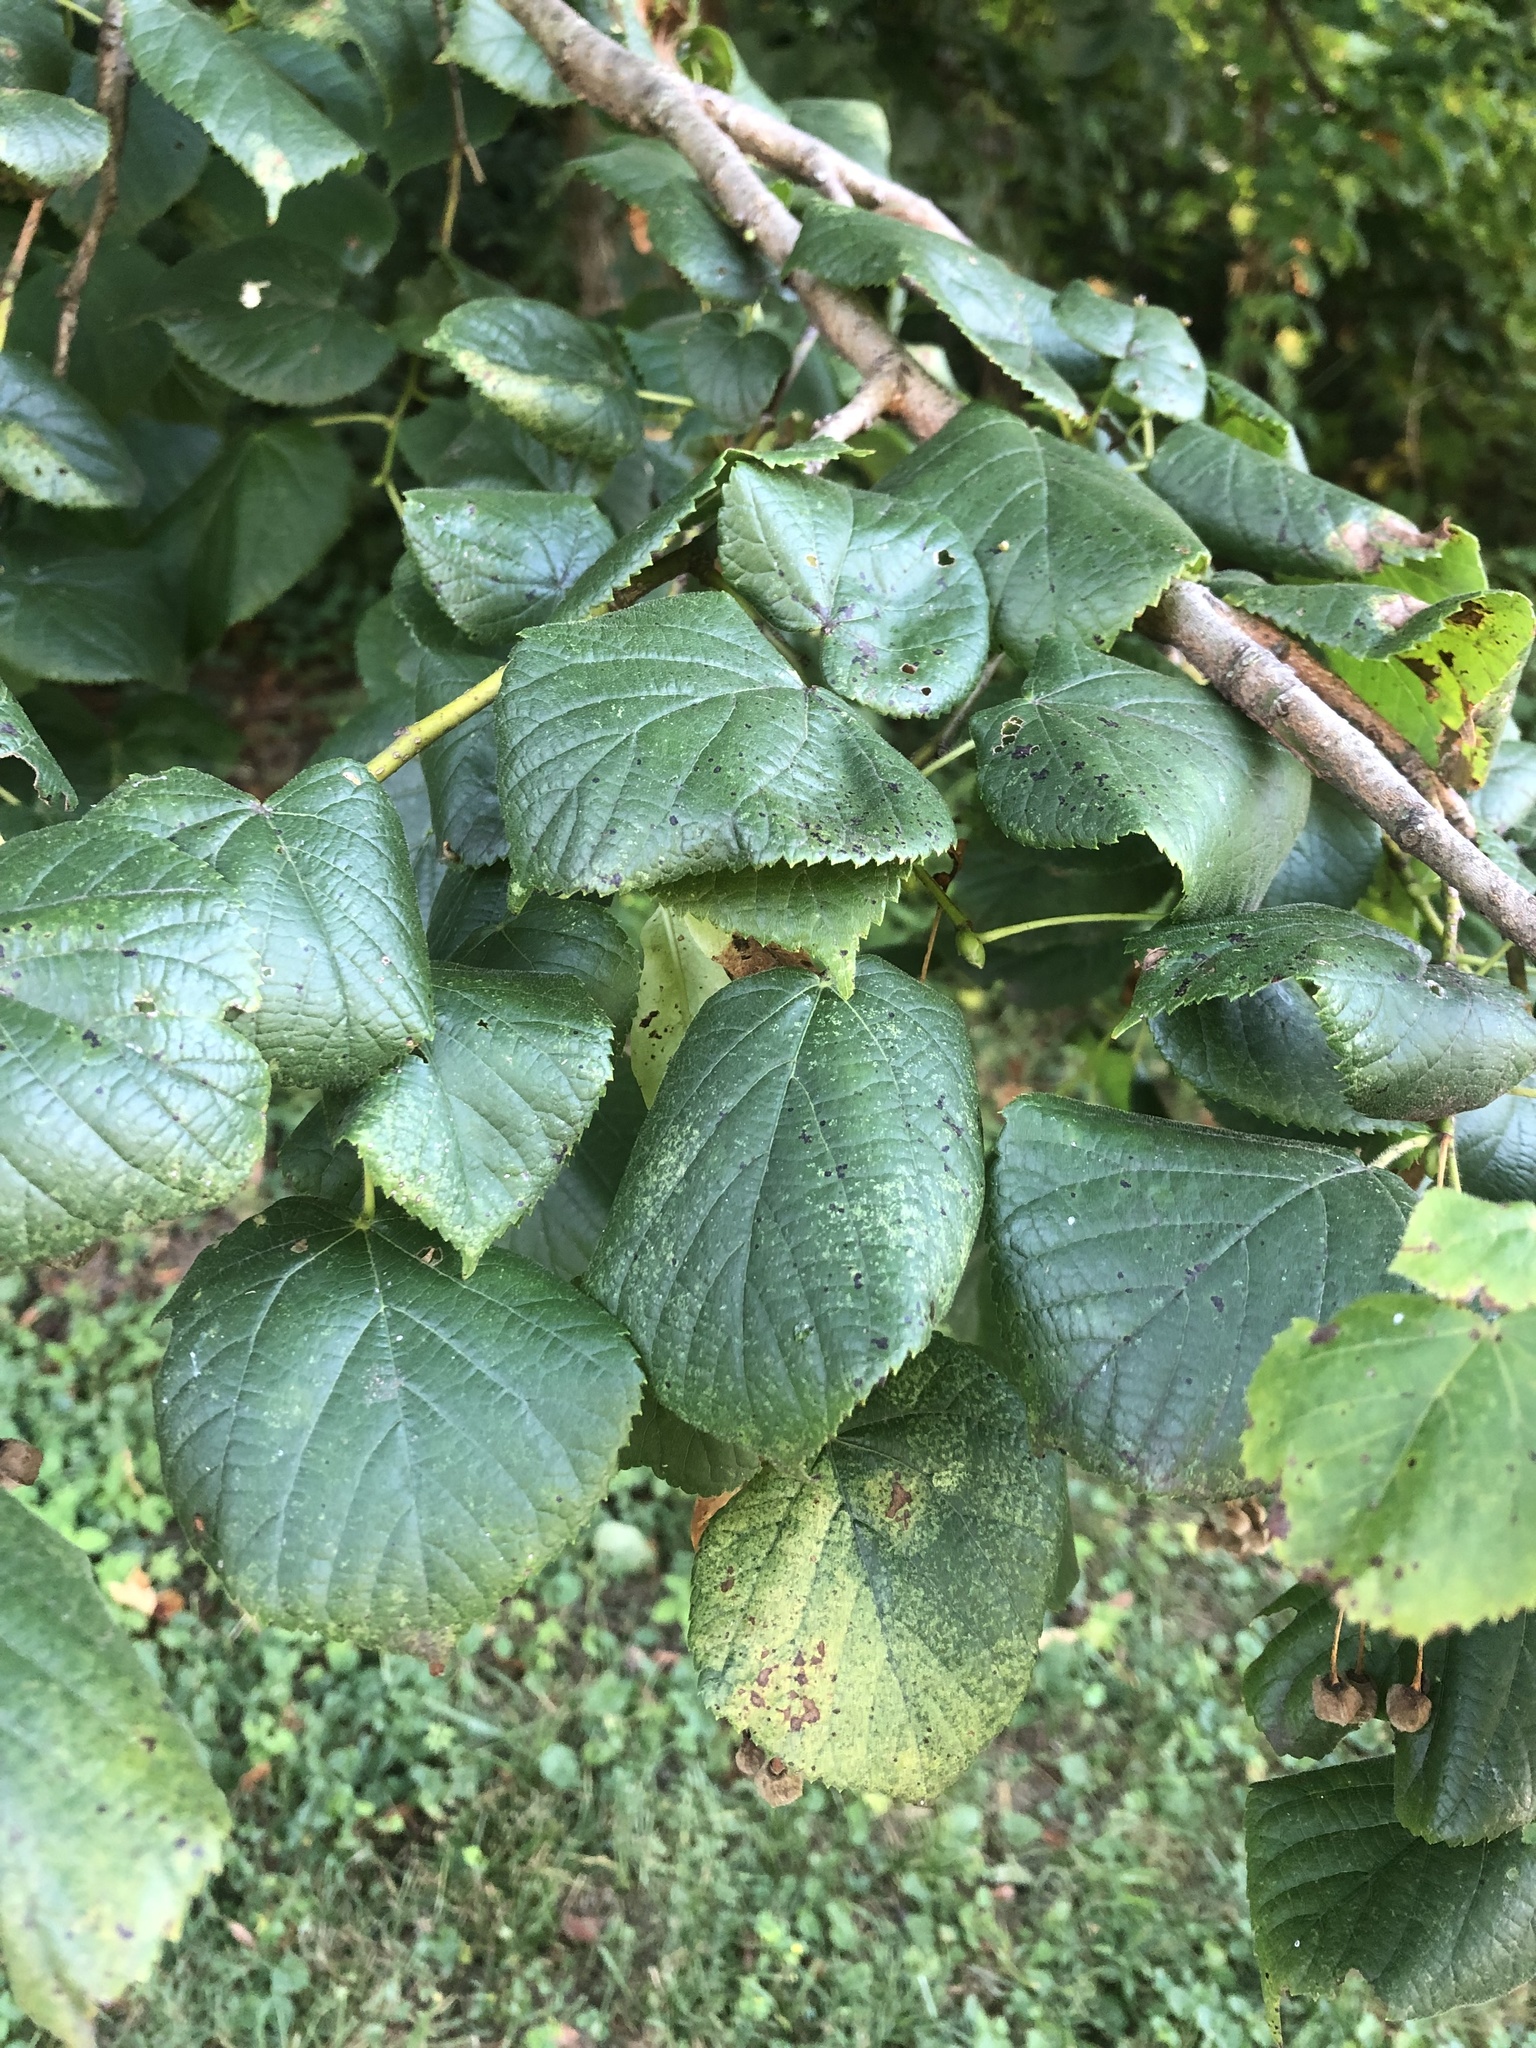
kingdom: Plantae
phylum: Tracheophyta
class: Magnoliopsida
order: Malvales
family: Malvaceae
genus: Tilia
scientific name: Tilia americana
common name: Basswood
